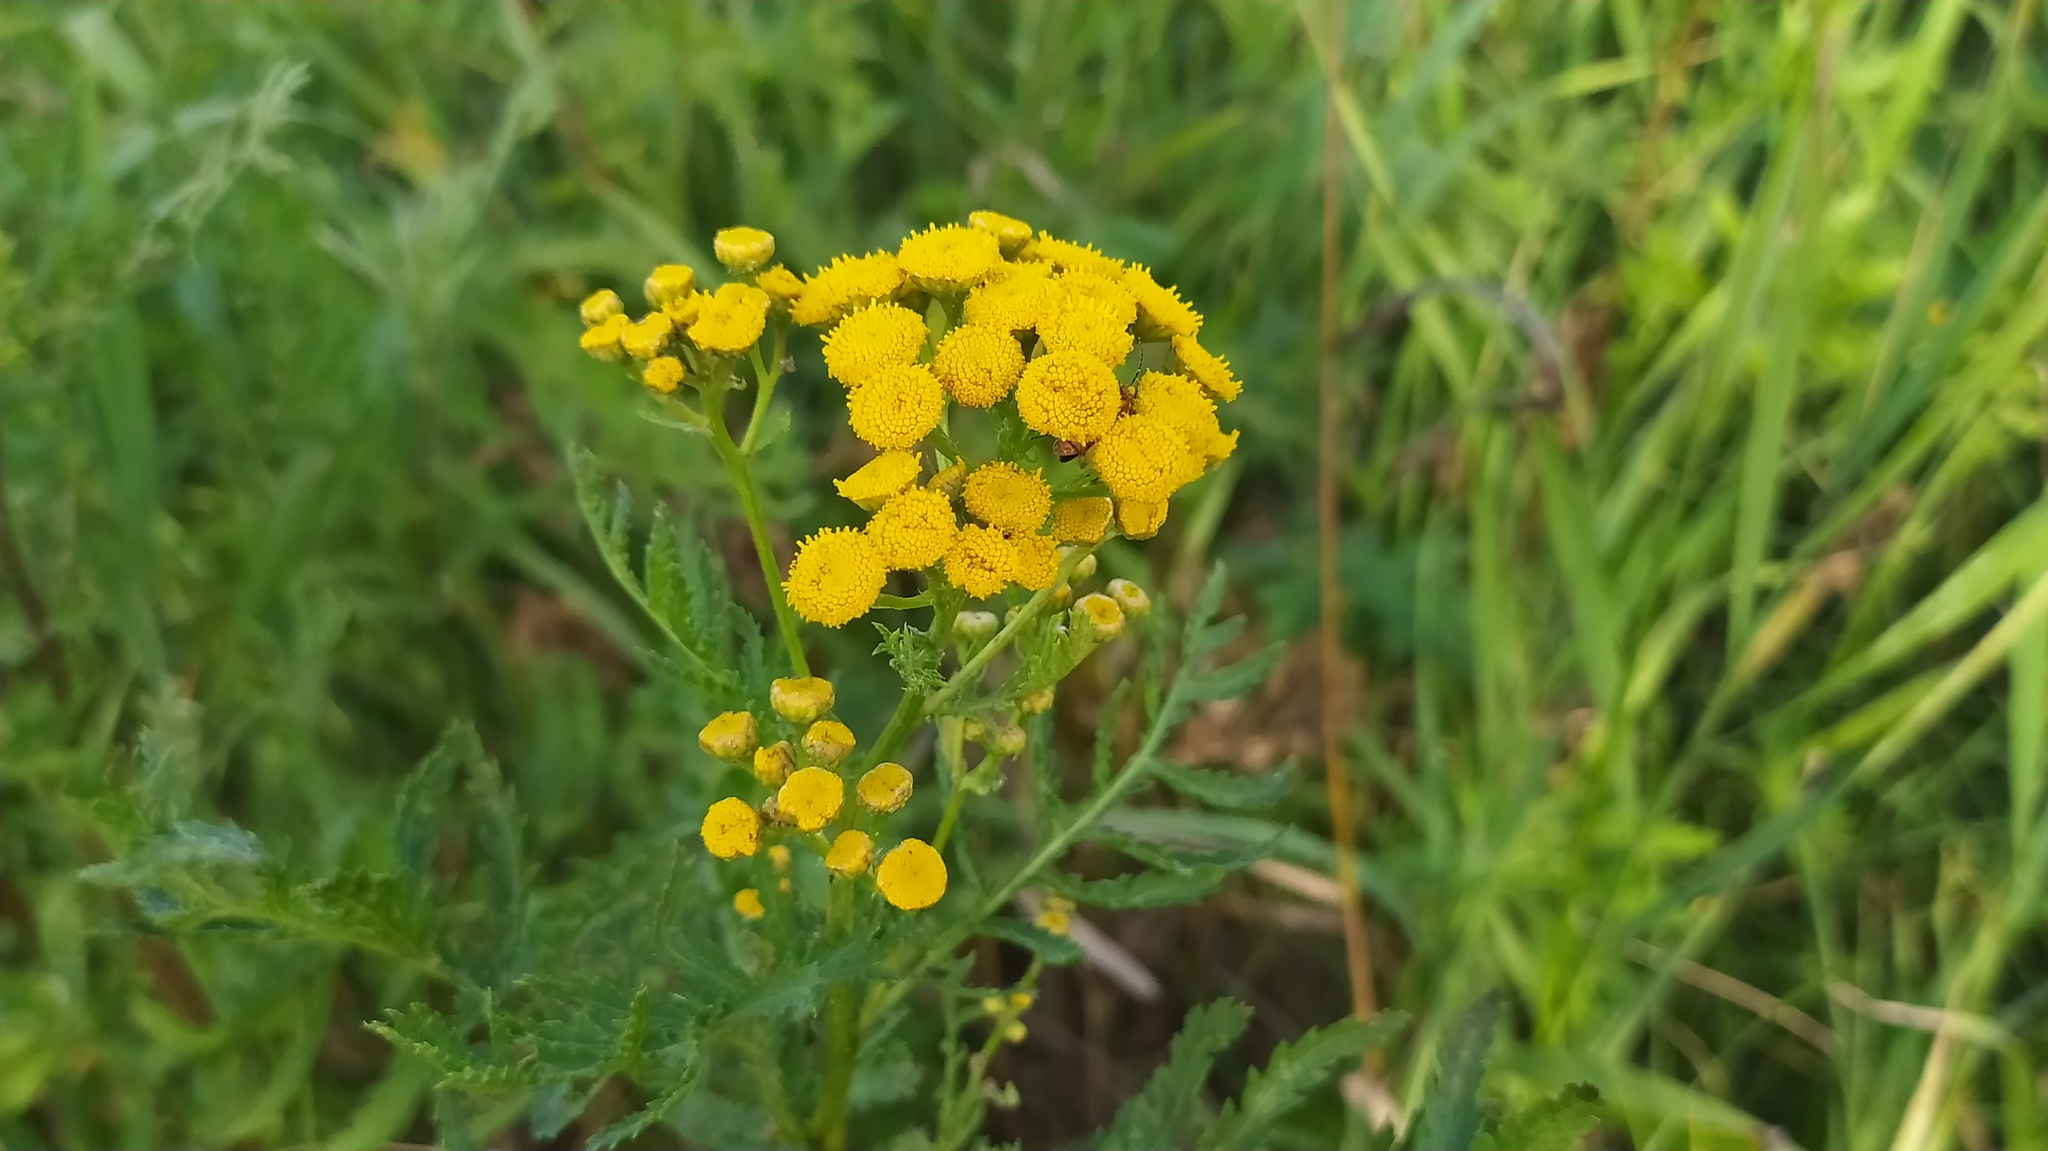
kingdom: Plantae
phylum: Tracheophyta
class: Magnoliopsida
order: Asterales
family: Asteraceae
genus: Tanacetum
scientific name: Tanacetum vulgare
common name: Common tansy
